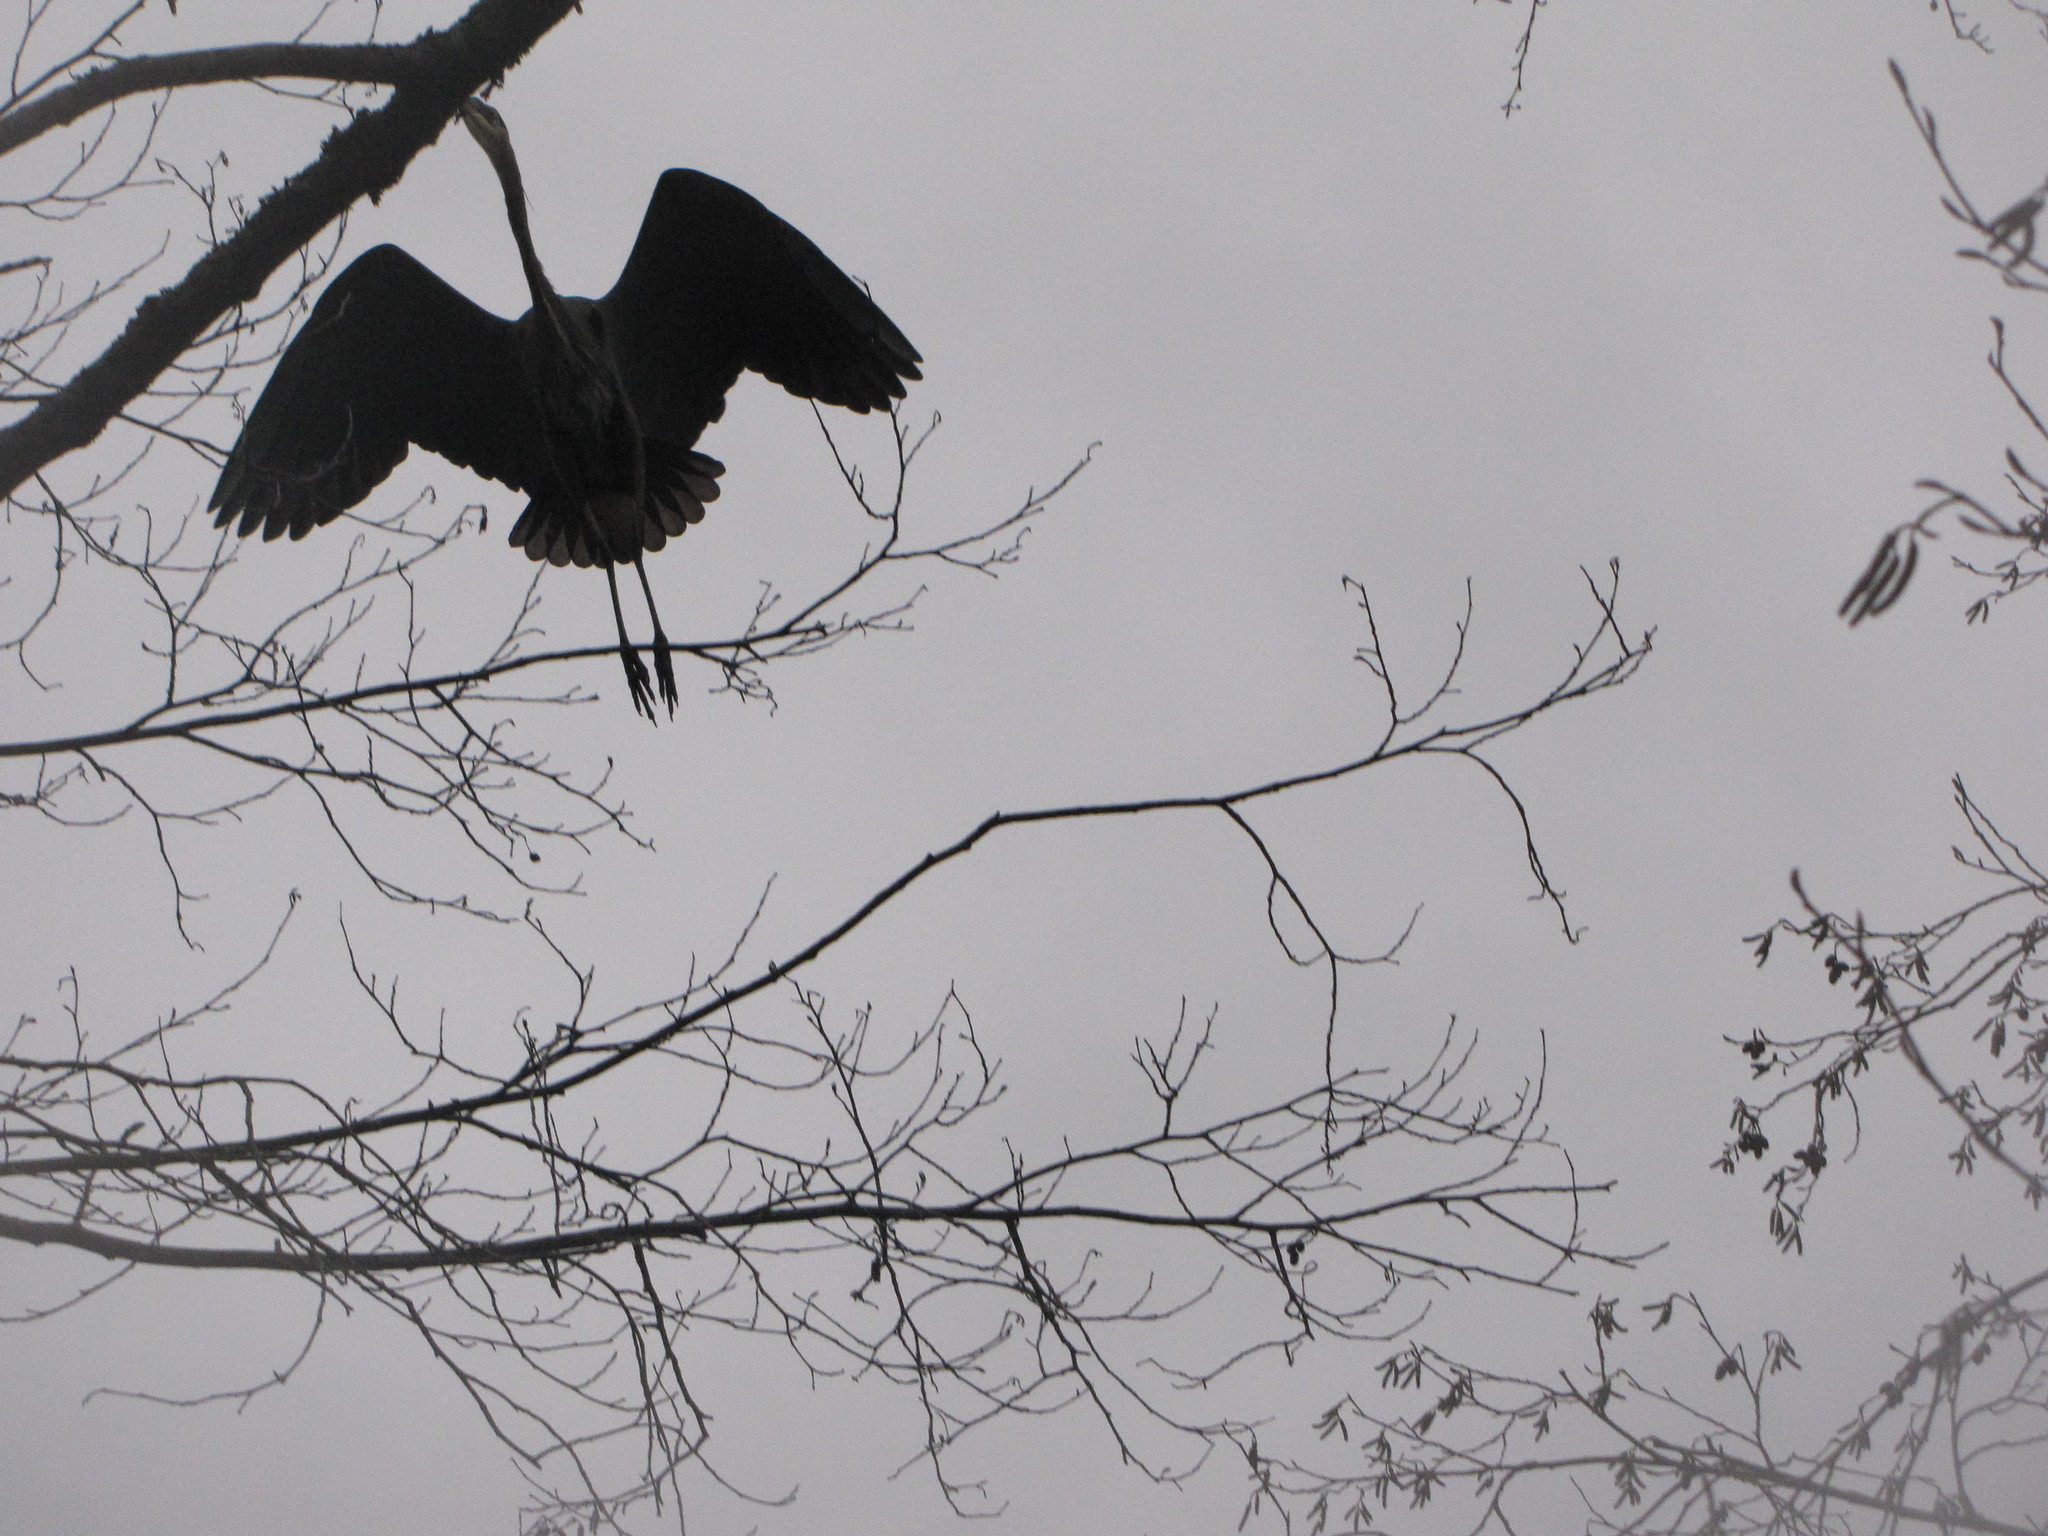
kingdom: Animalia
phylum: Chordata
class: Aves
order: Pelecaniformes
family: Ardeidae
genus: Ardea
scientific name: Ardea herodias
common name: Great blue heron
